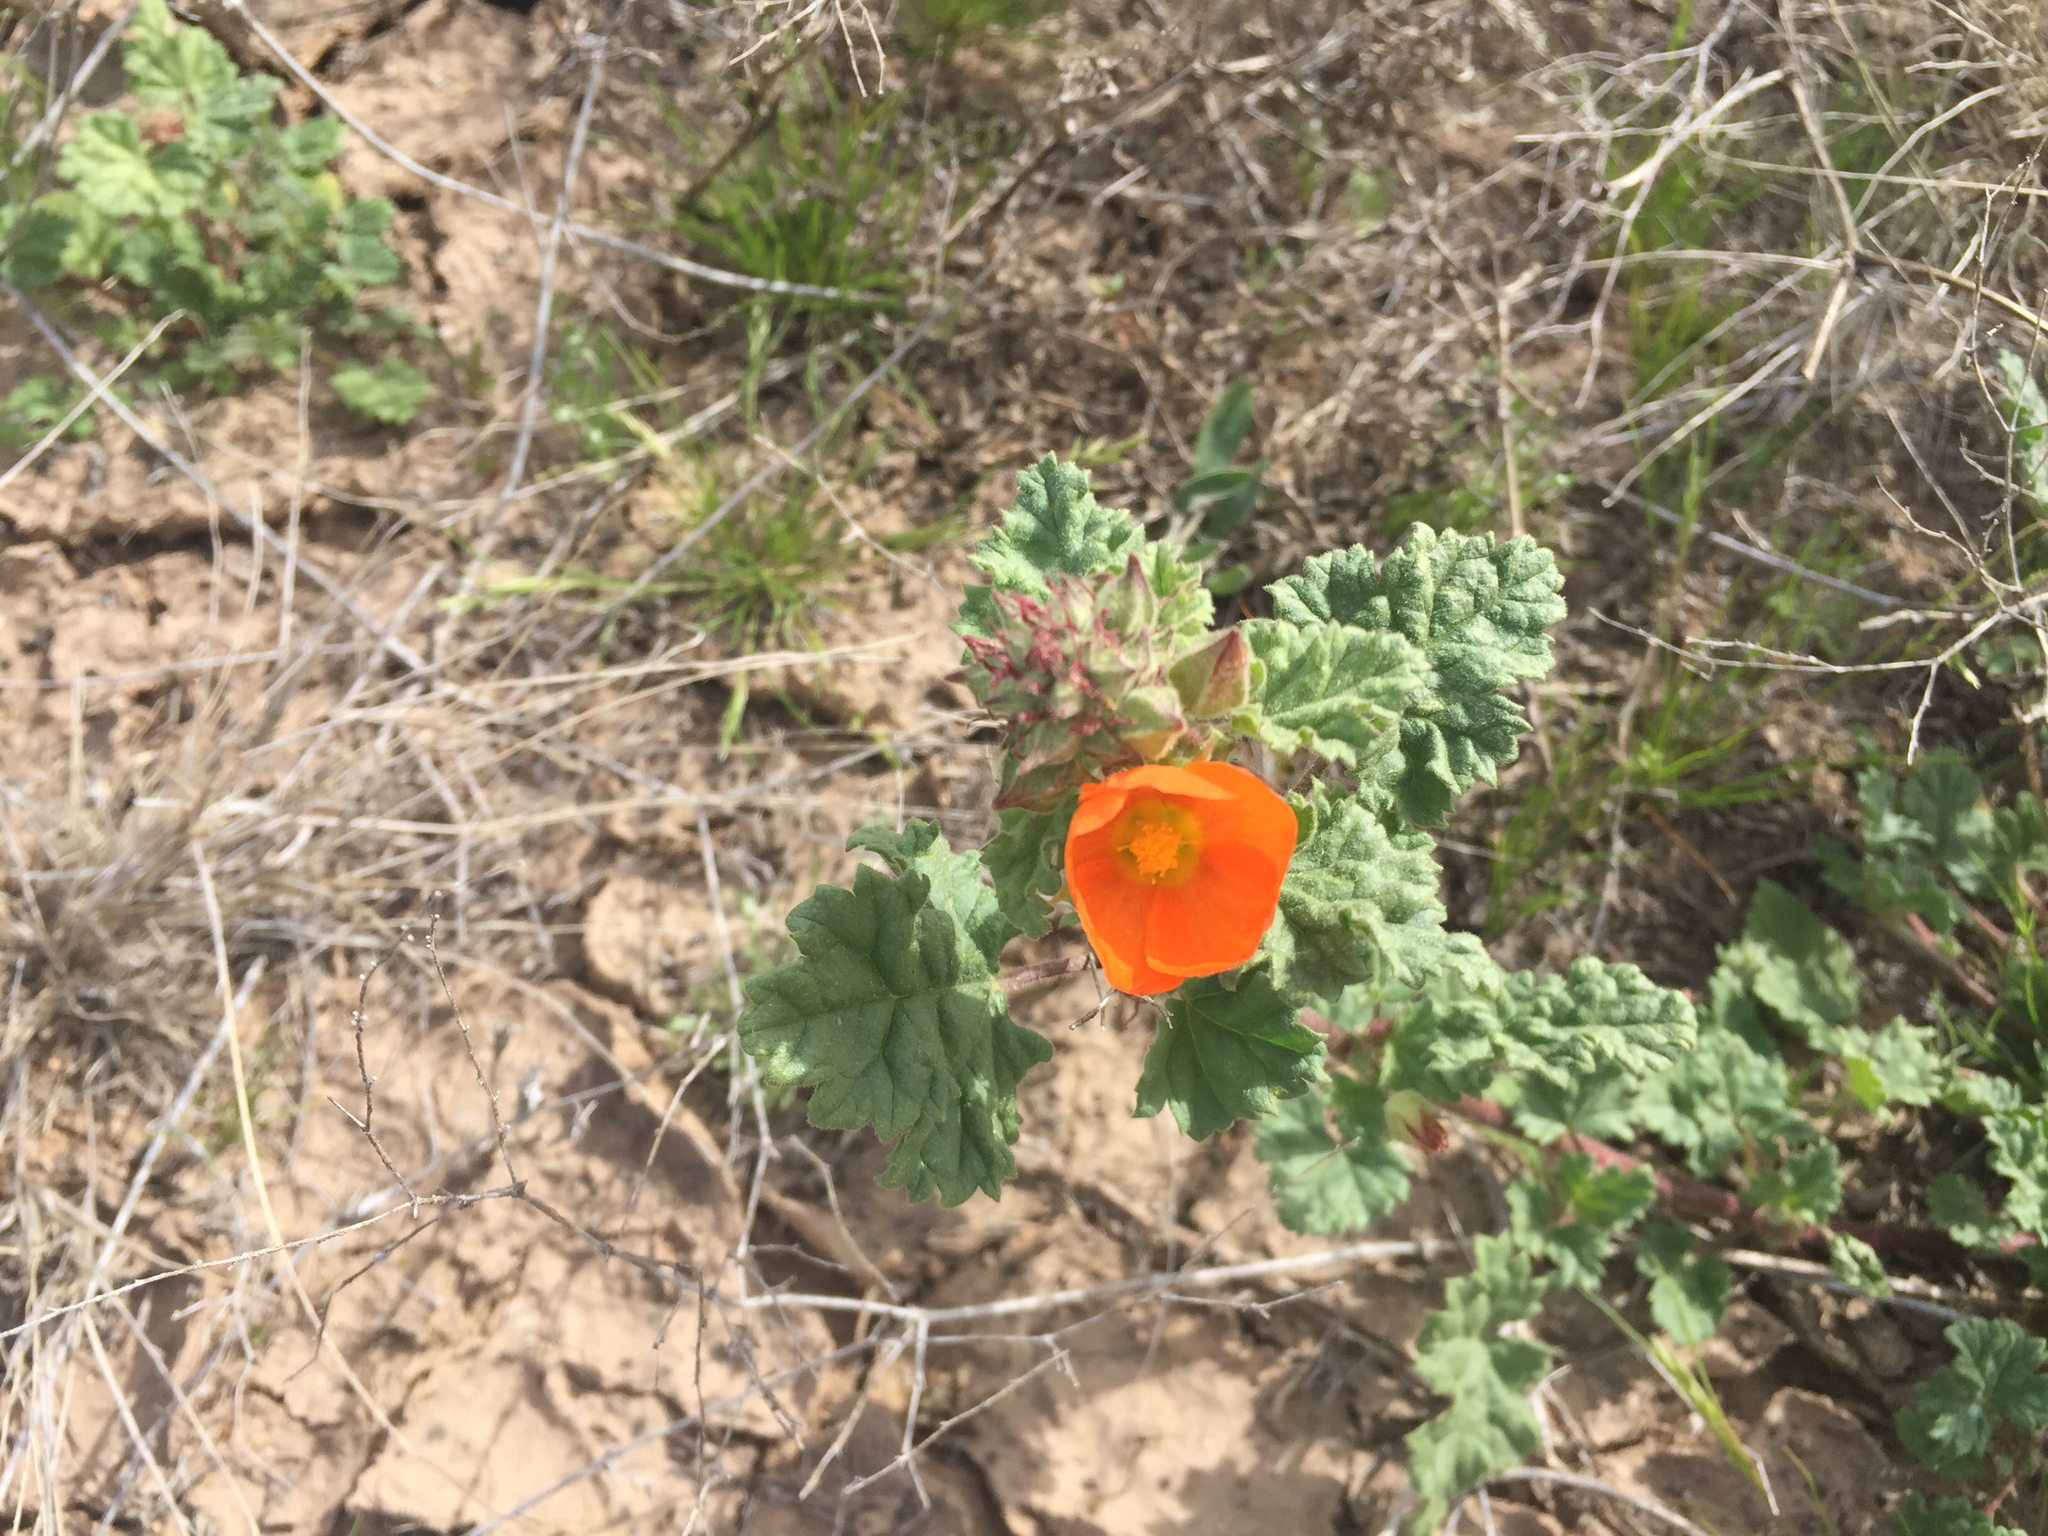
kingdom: Plantae
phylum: Tracheophyta
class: Magnoliopsida
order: Malvales
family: Malvaceae
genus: Sphaeralcea
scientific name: Sphaeralcea ambigua
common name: Apricot globe-mallow
